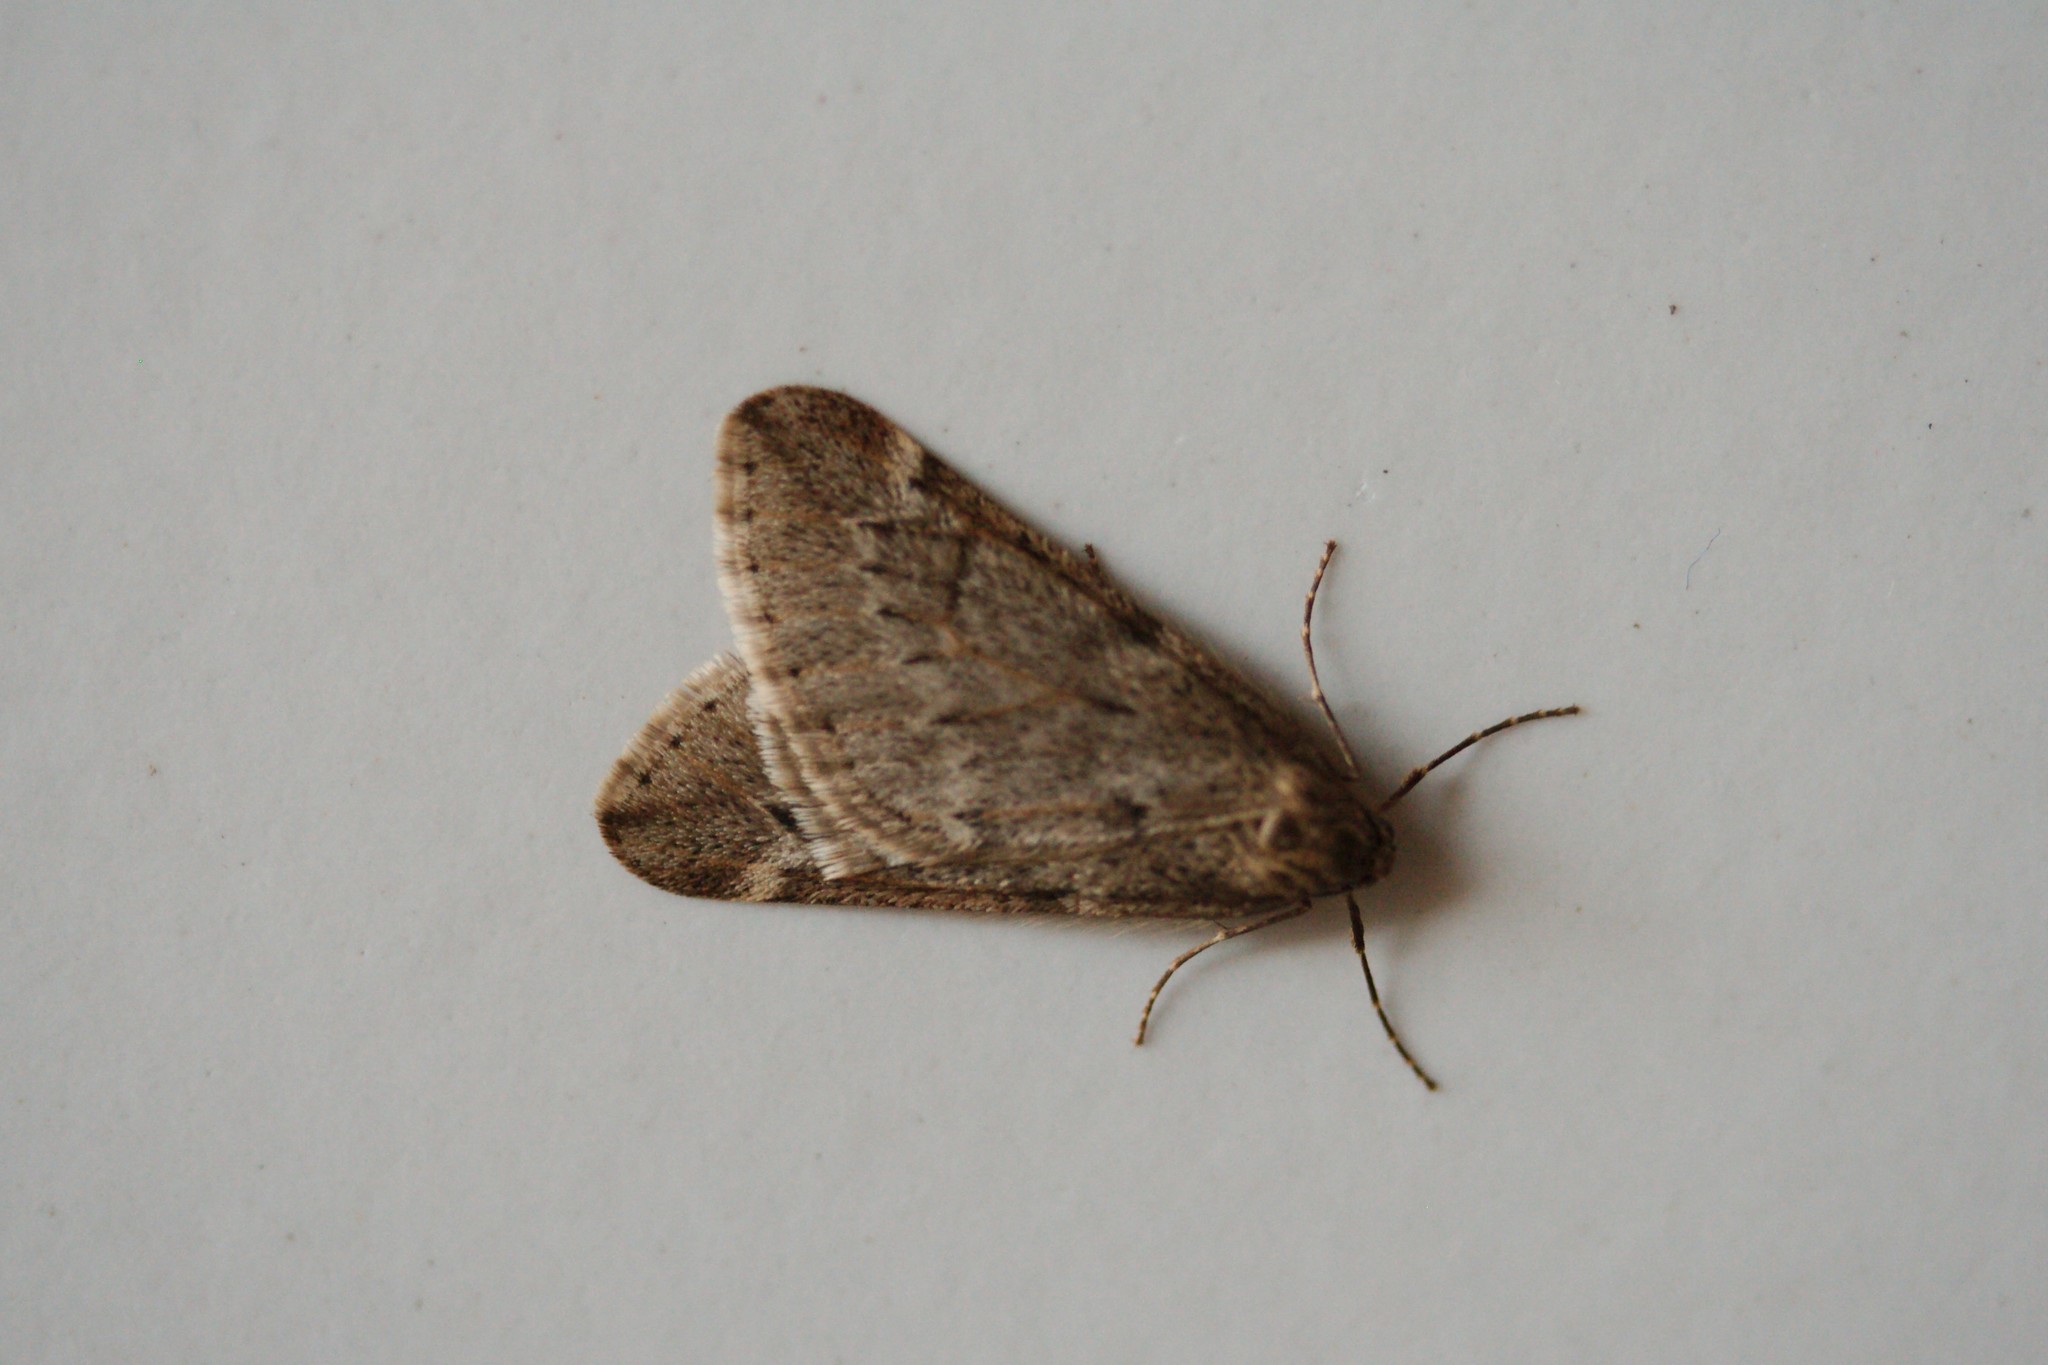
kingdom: Animalia
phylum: Arthropoda
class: Insecta
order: Lepidoptera
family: Geometridae
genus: Alsophila
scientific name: Alsophila aescularia
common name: March moth
